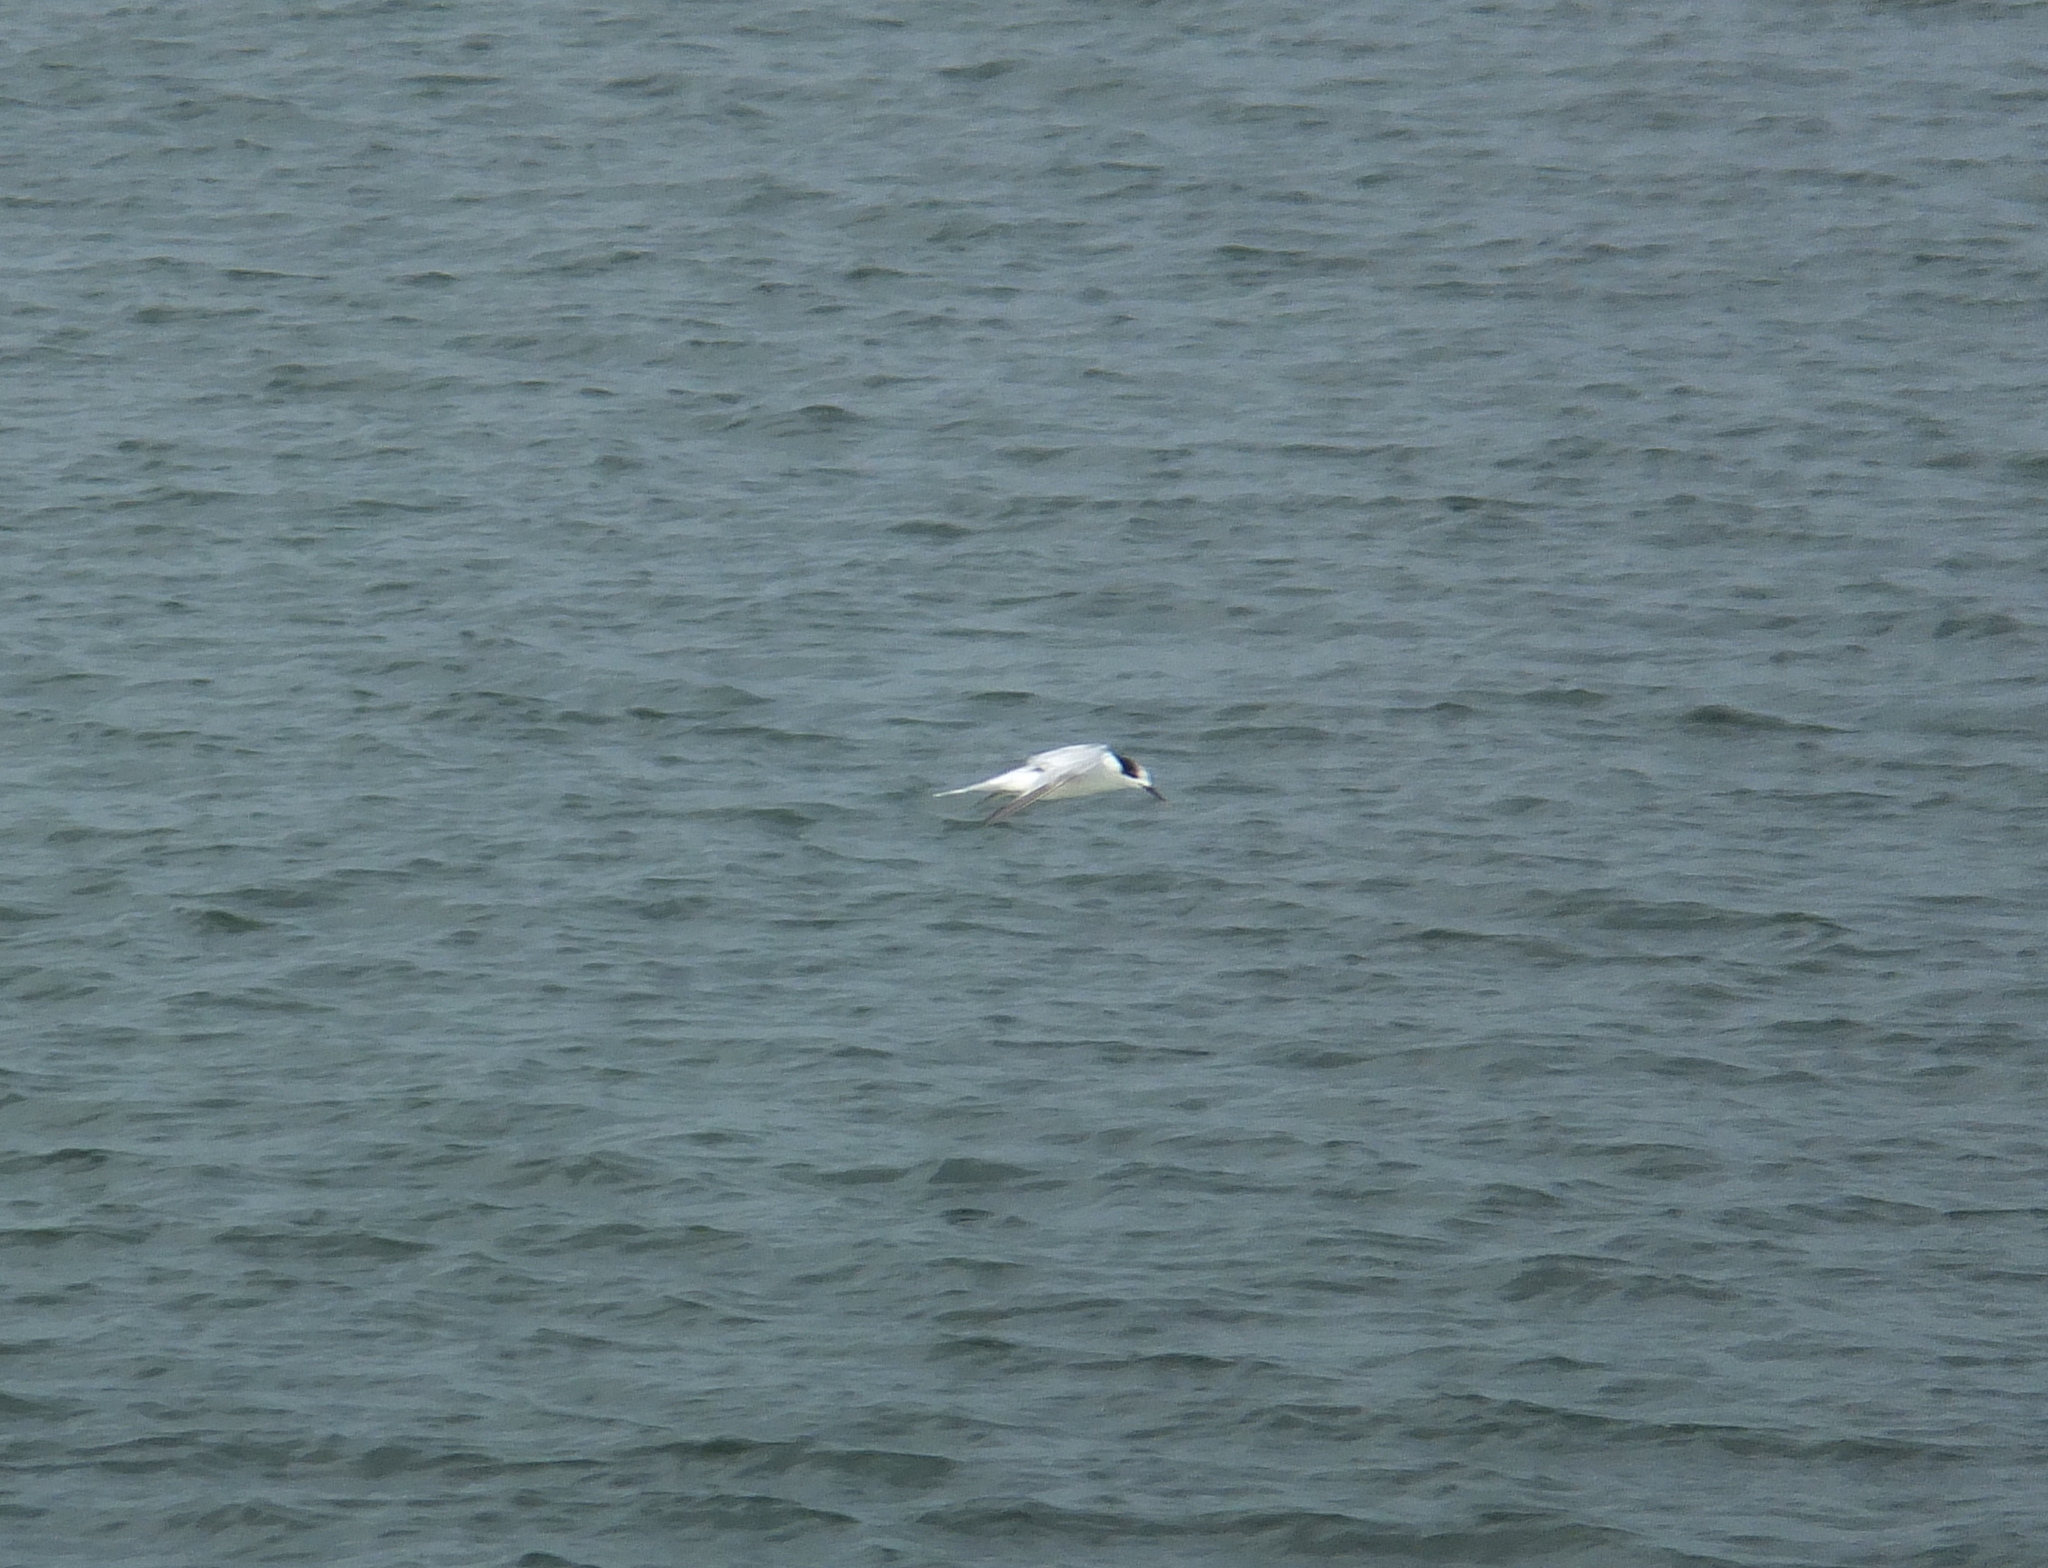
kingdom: Animalia
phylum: Chordata
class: Aves
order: Charadriiformes
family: Laridae
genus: Sternula
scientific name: Sternula albifrons
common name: Little tern
